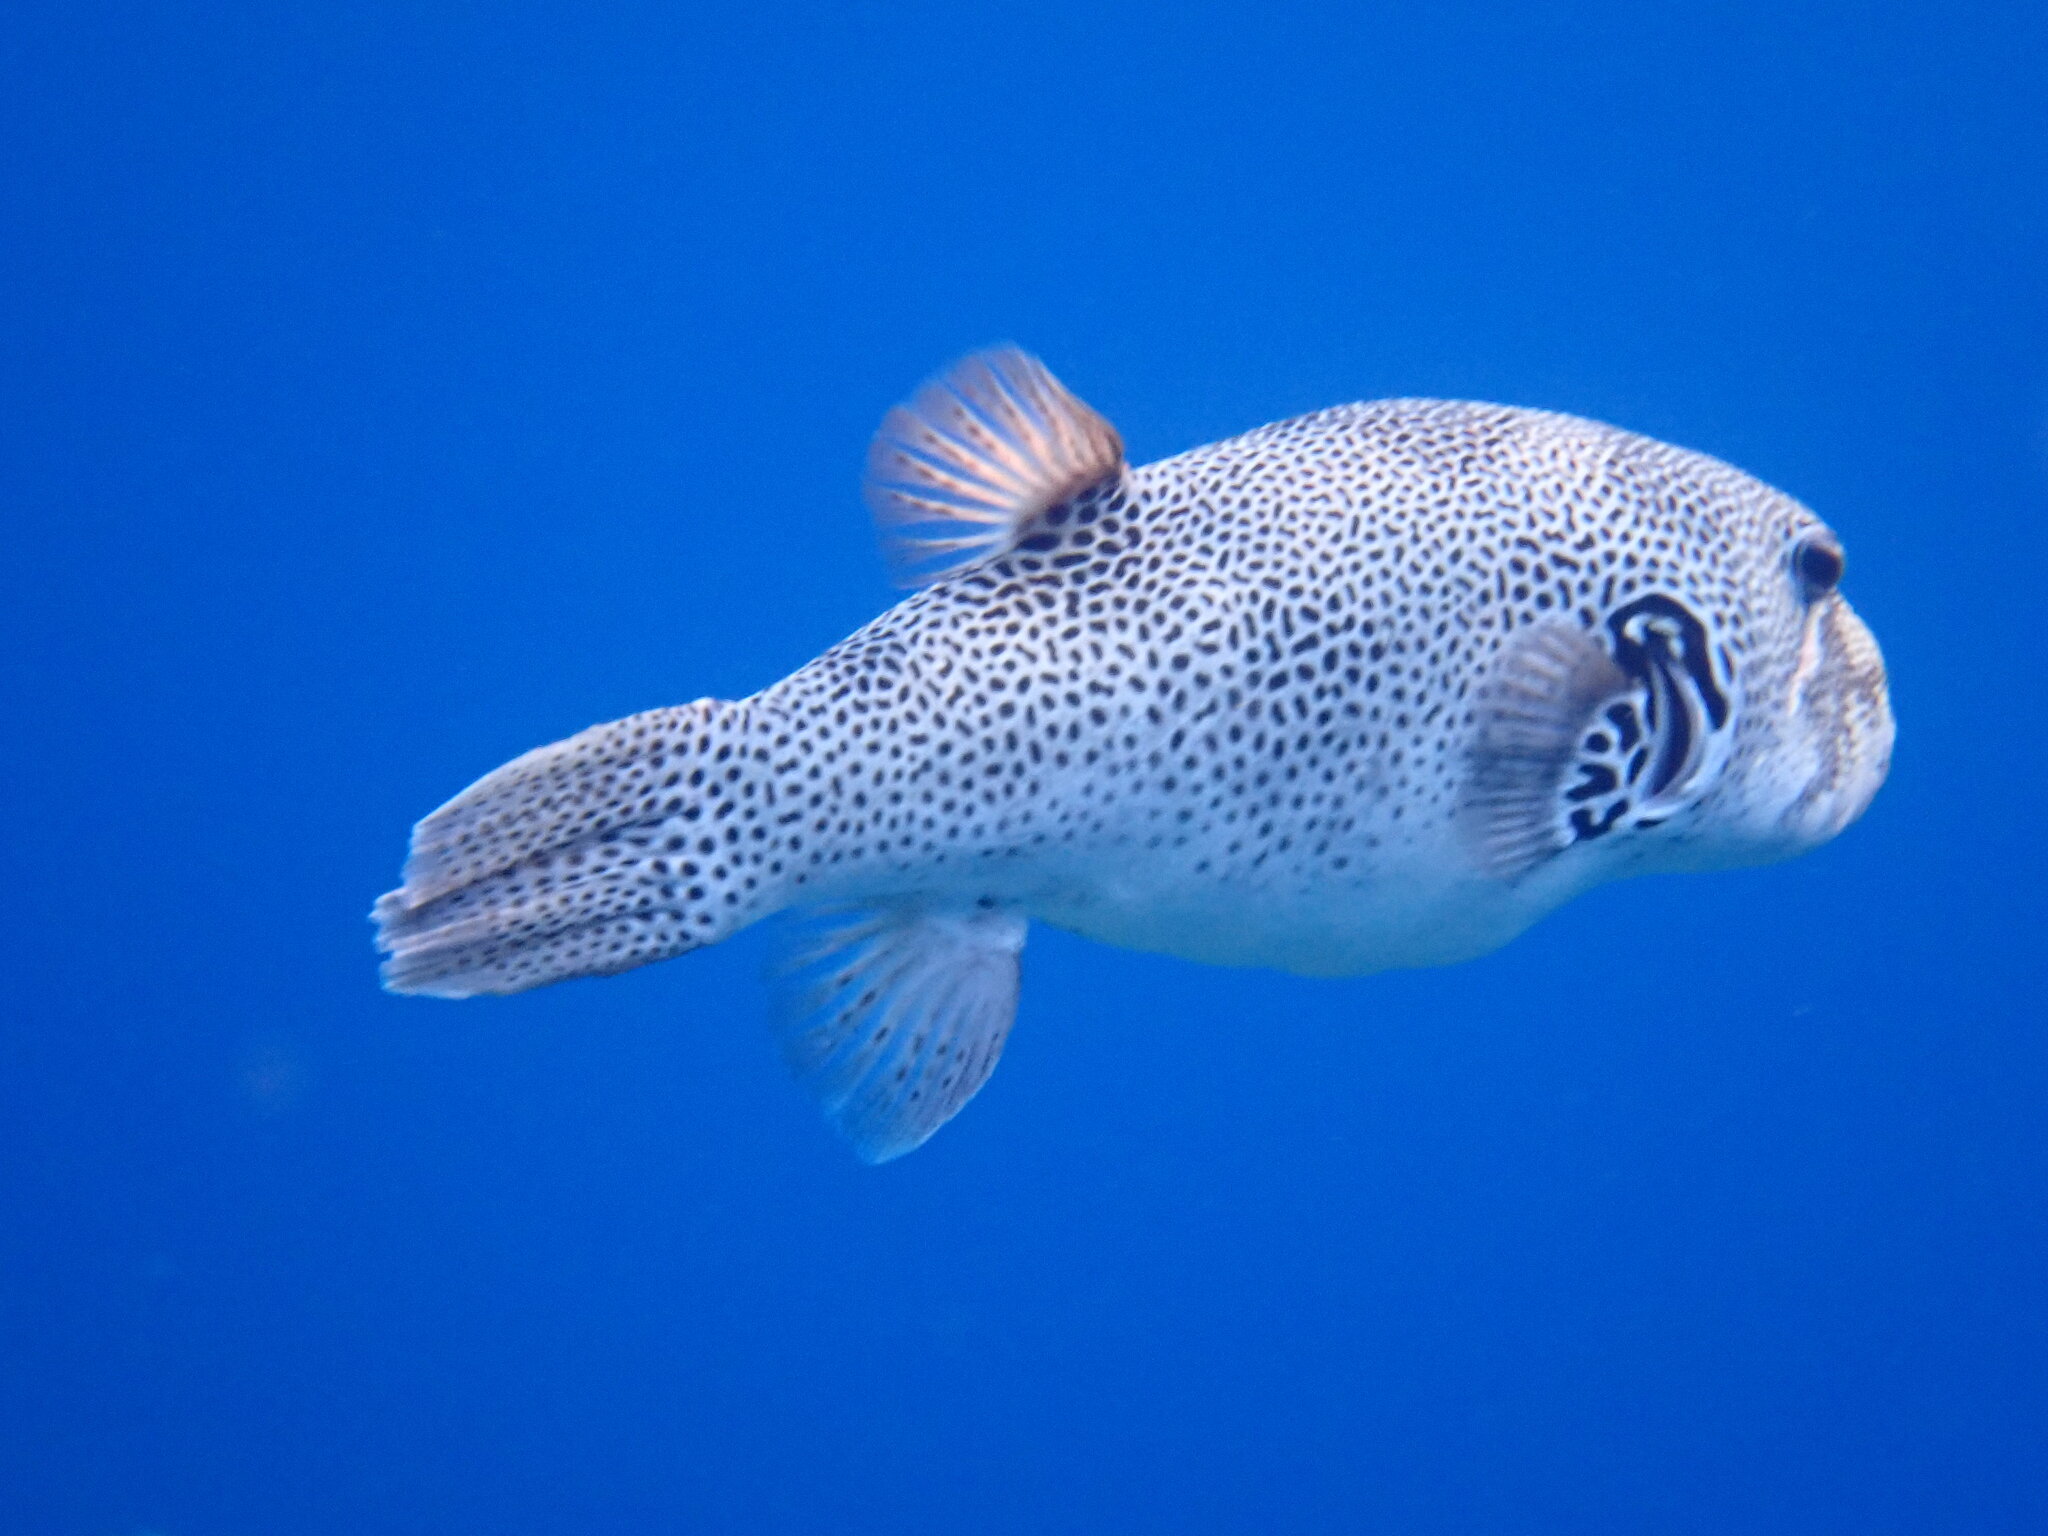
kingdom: Animalia
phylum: Chordata
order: Tetraodontiformes
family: Tetraodontidae
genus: Arothron
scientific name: Arothron stellatus
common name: Star blaasop
